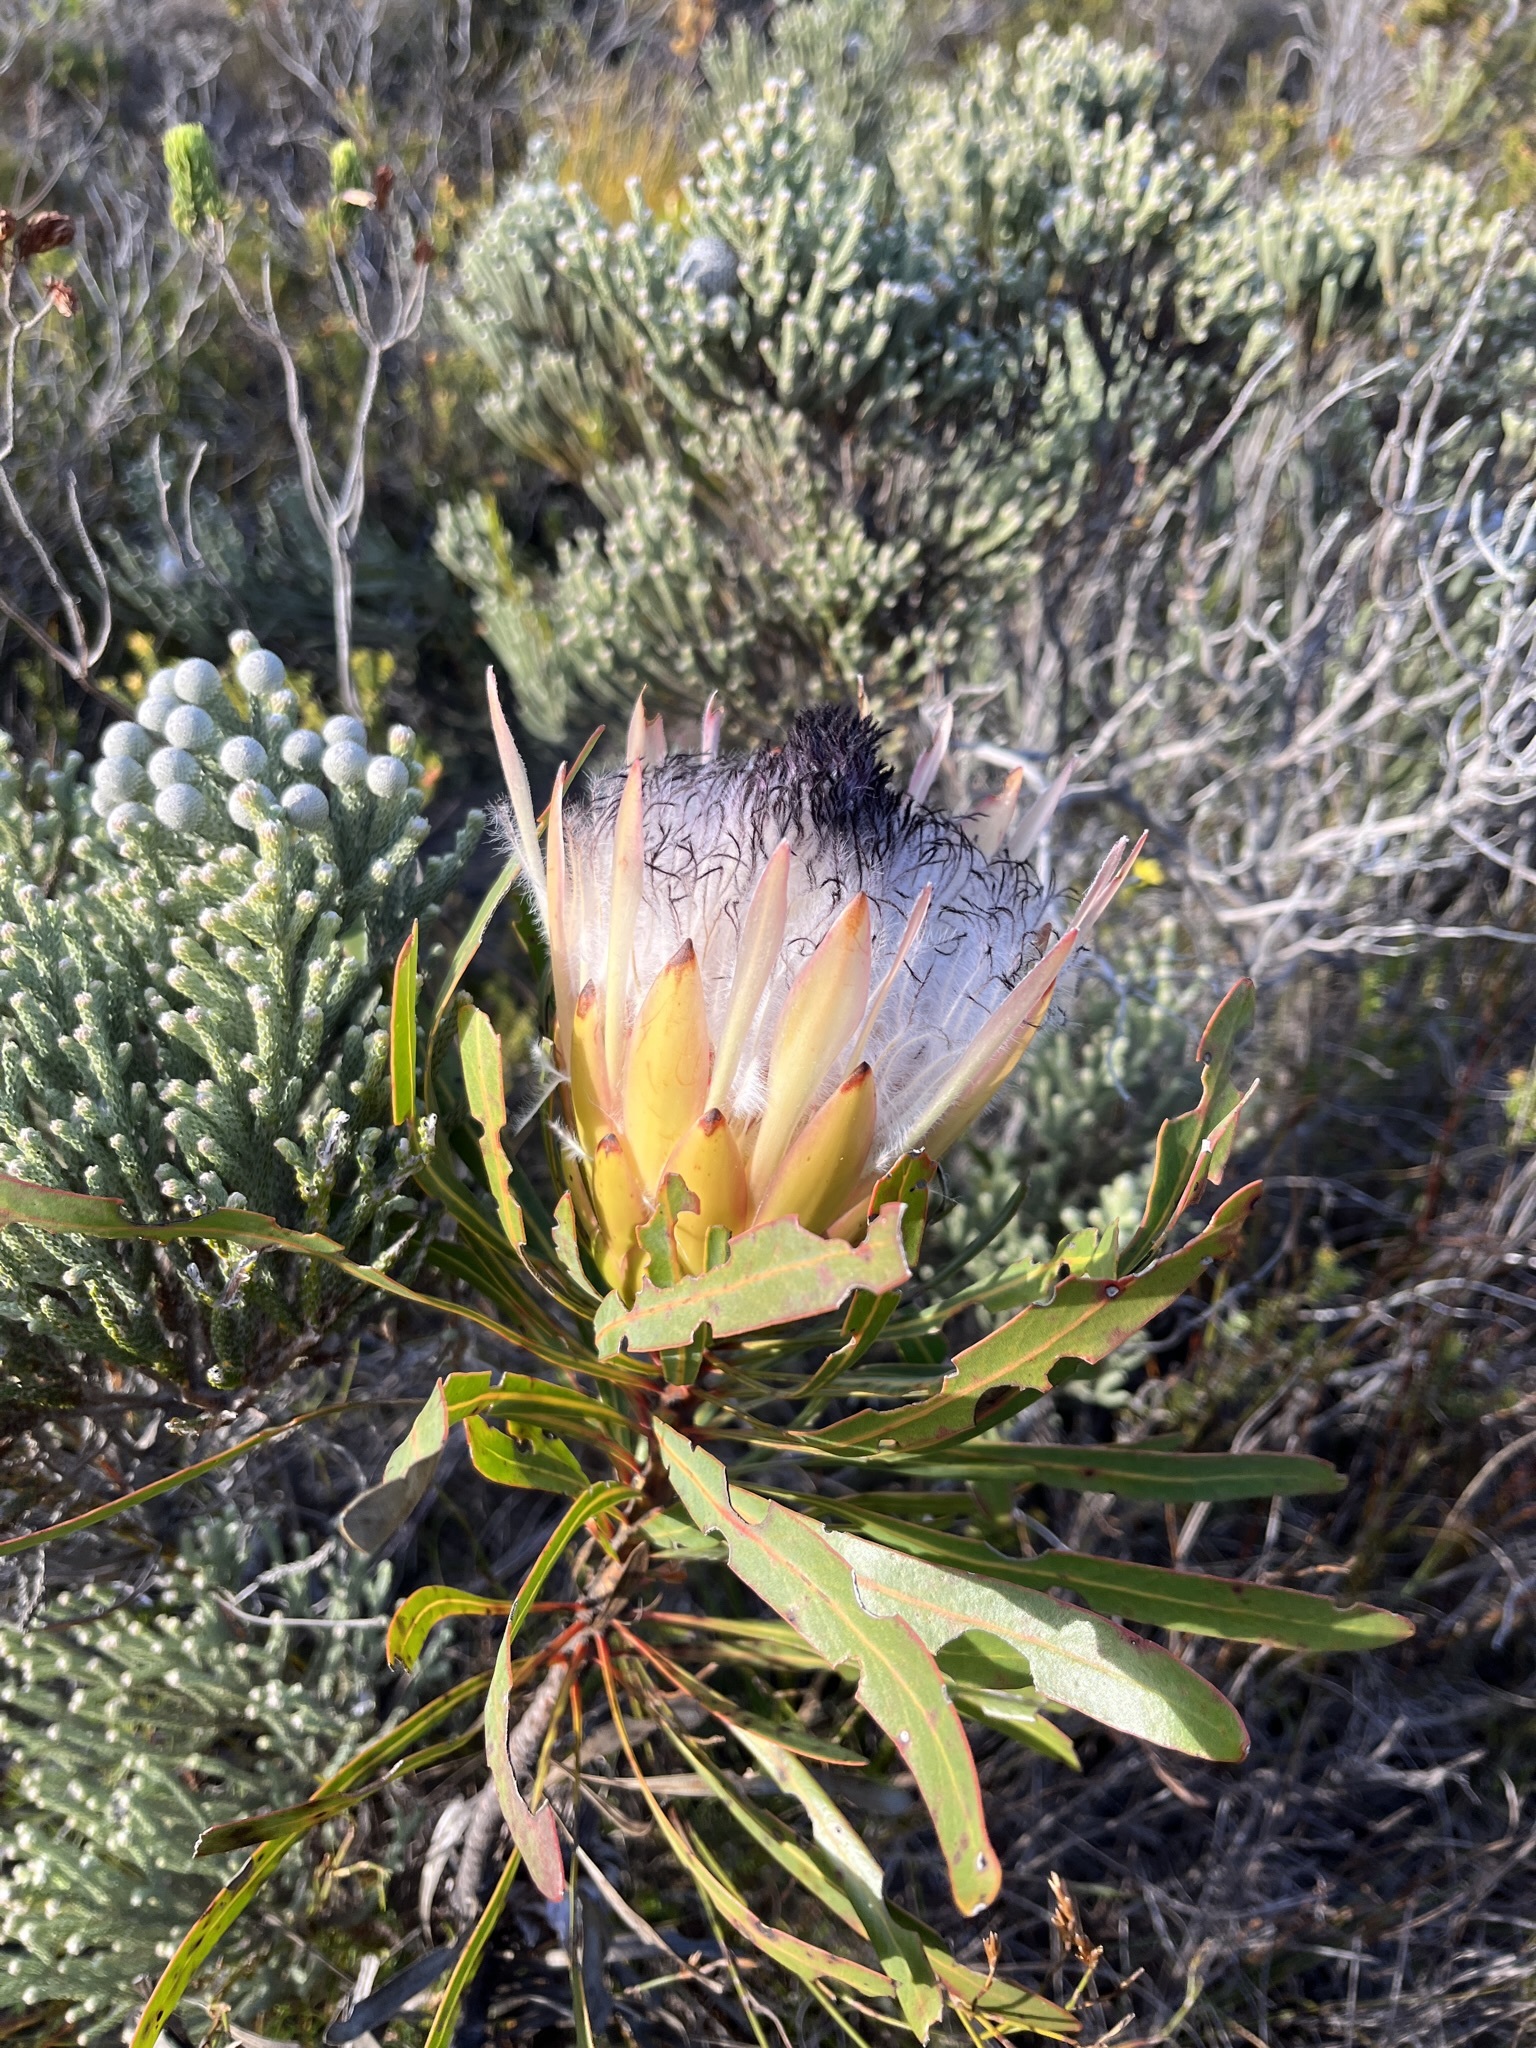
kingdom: Plantae
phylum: Tracheophyta
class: Magnoliopsida
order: Proteales
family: Proteaceae
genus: Protea
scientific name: Protea longifolia
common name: Long-leaf sugarbush
